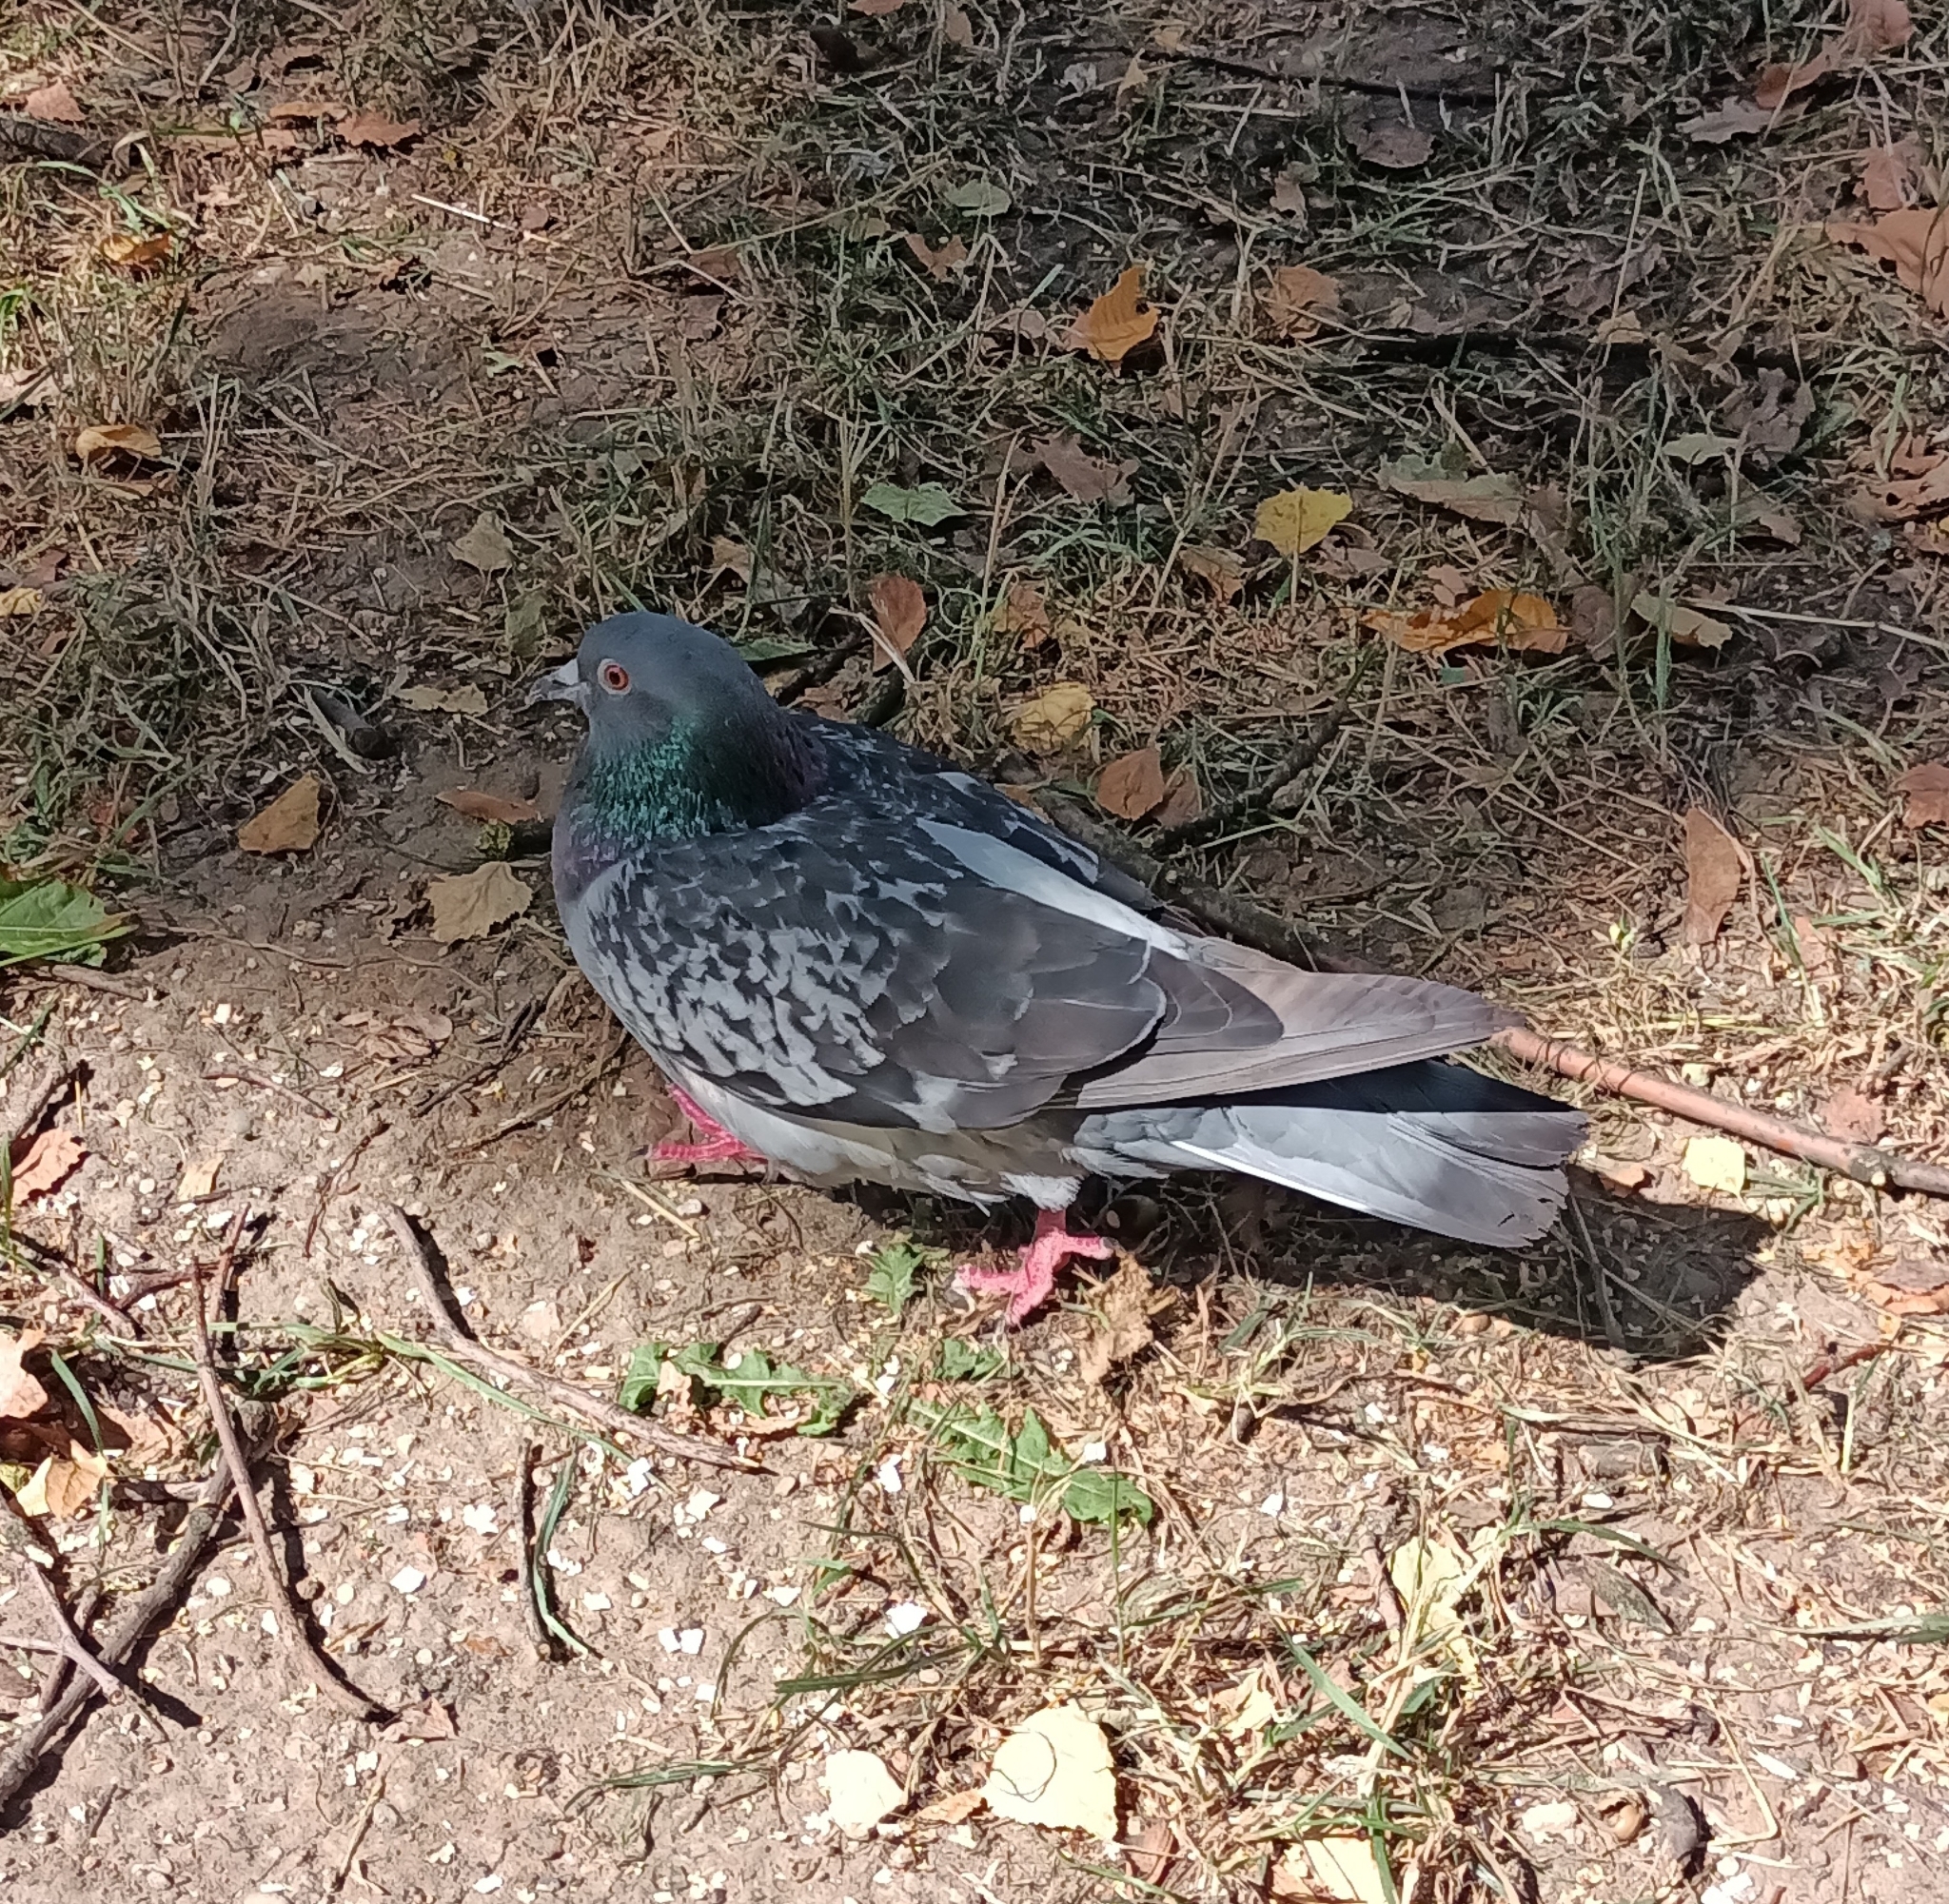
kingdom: Animalia
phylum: Chordata
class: Aves
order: Columbiformes
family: Columbidae
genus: Columba
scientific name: Columba livia
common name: Rock pigeon
